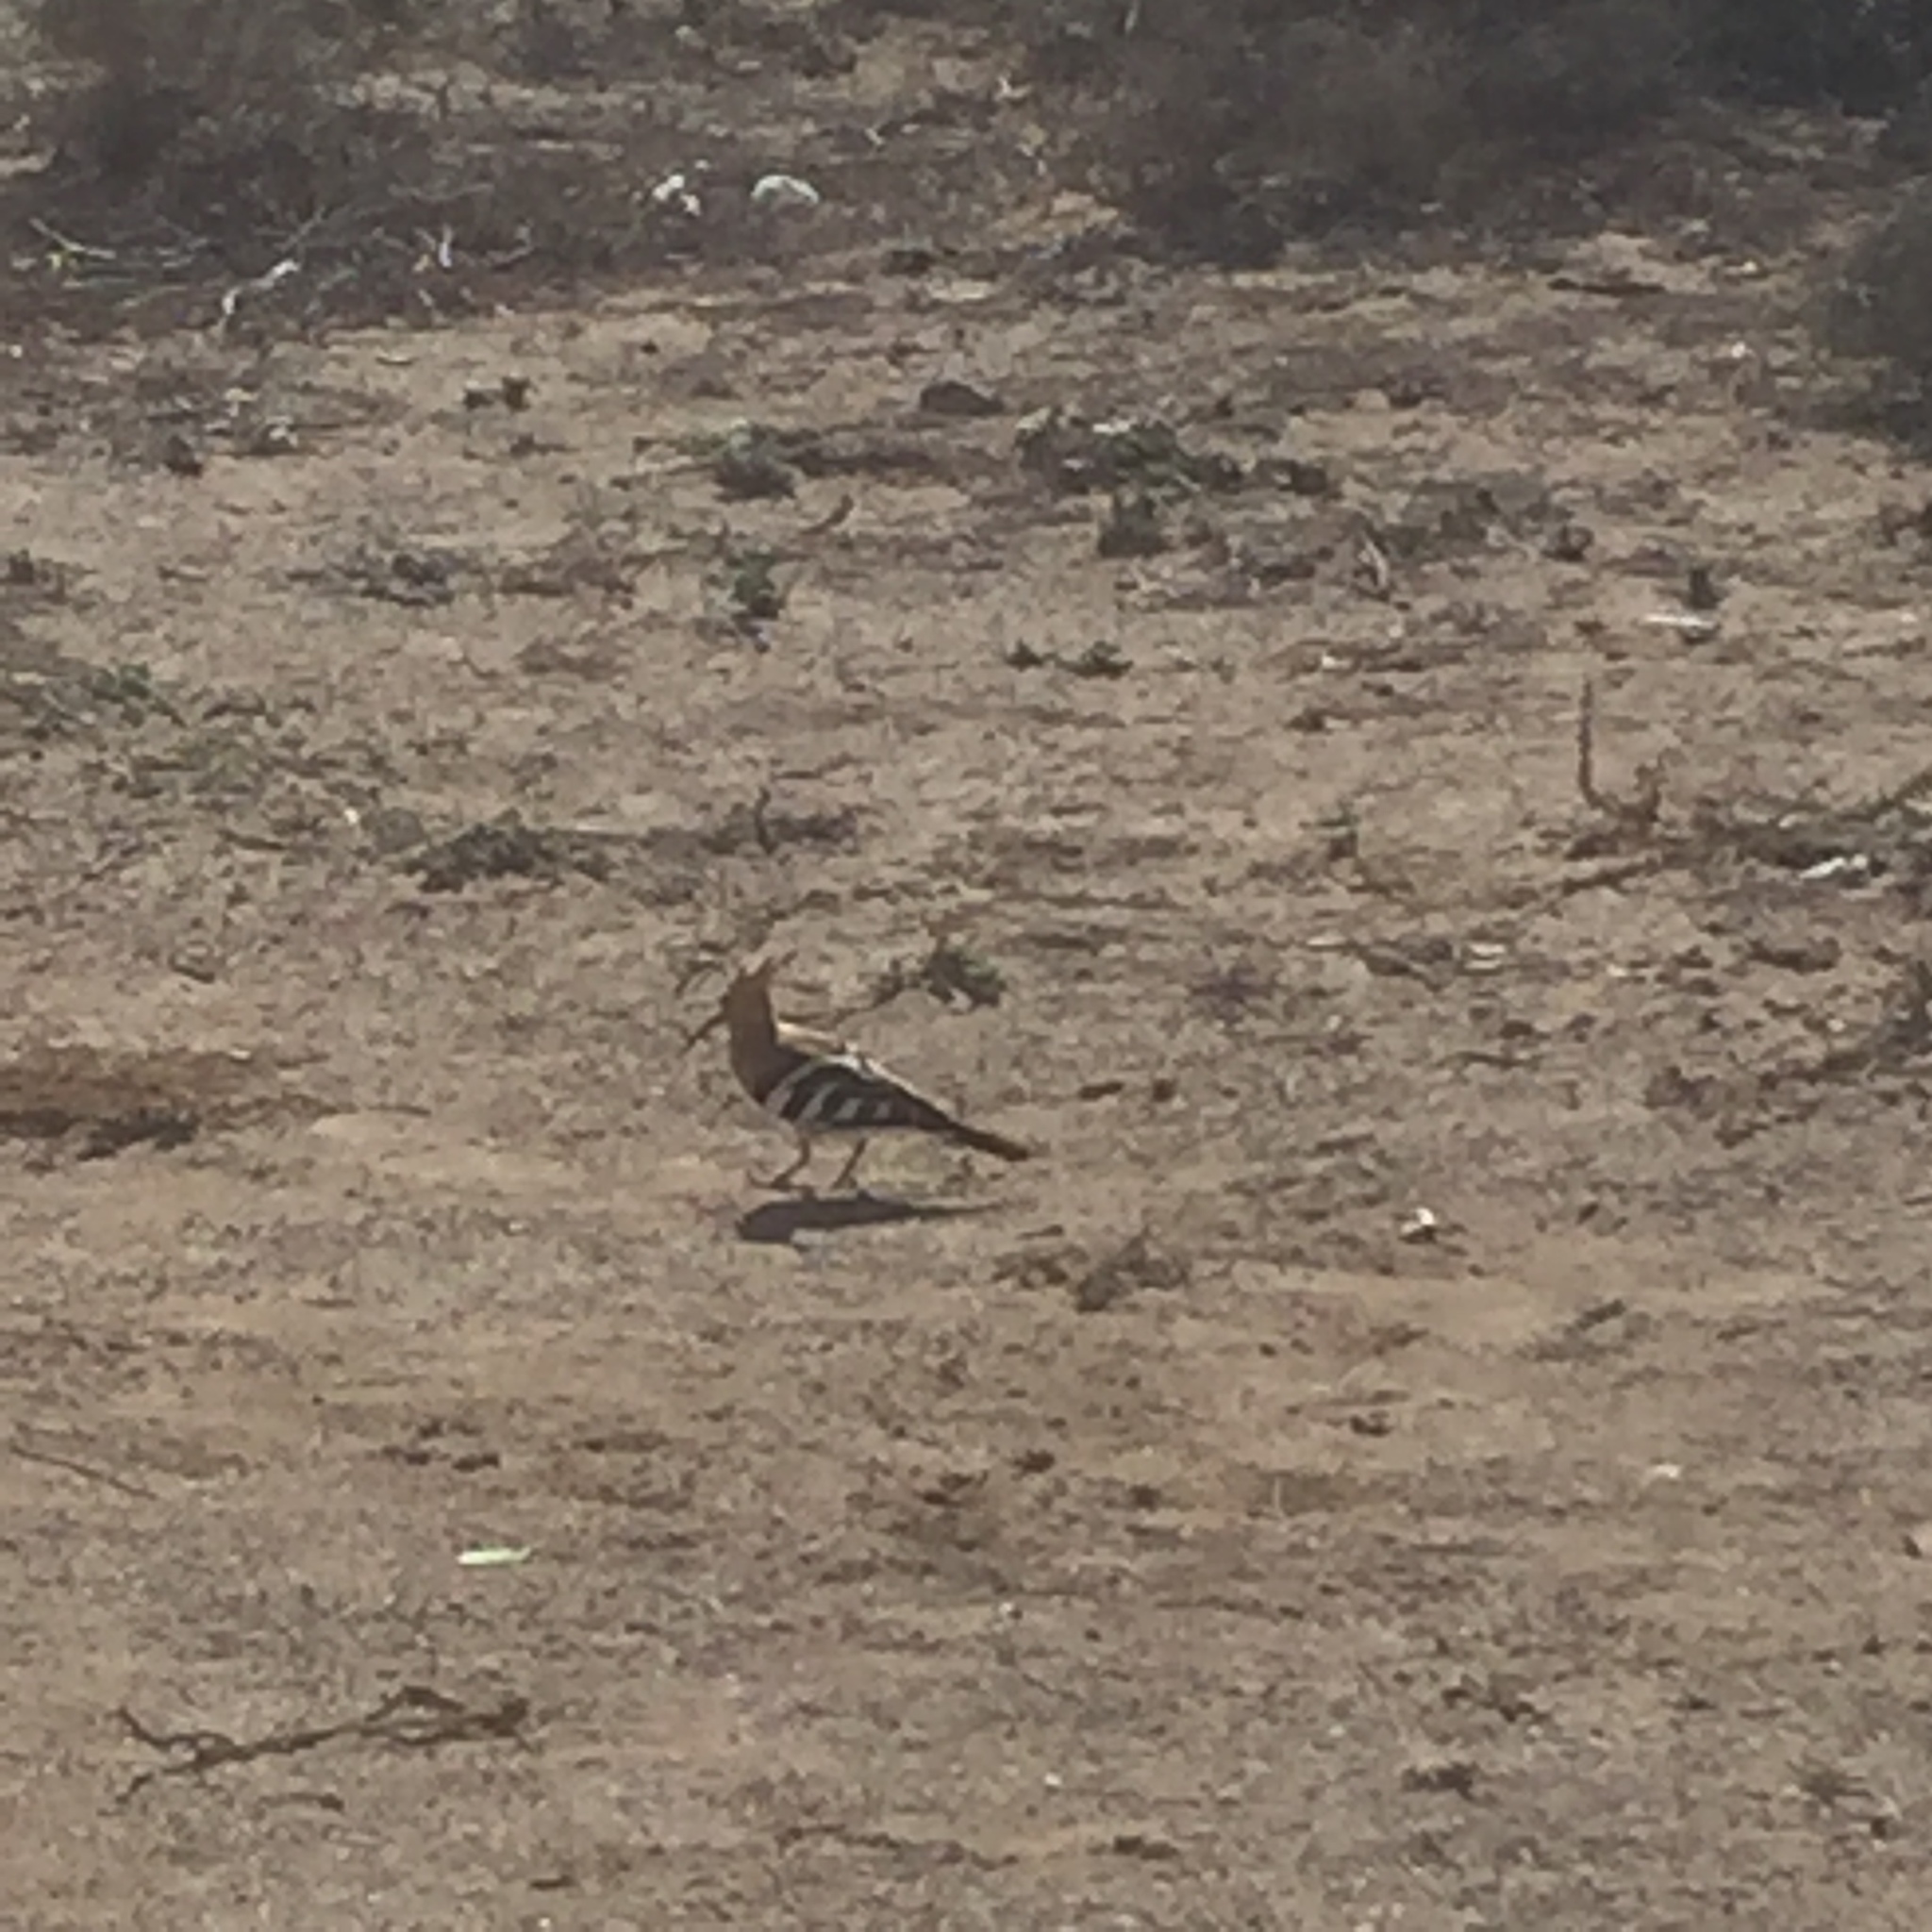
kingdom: Animalia
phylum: Chordata
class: Aves
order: Bucerotiformes
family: Upupidae
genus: Upupa
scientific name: Upupa epops
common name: Eurasian hoopoe
